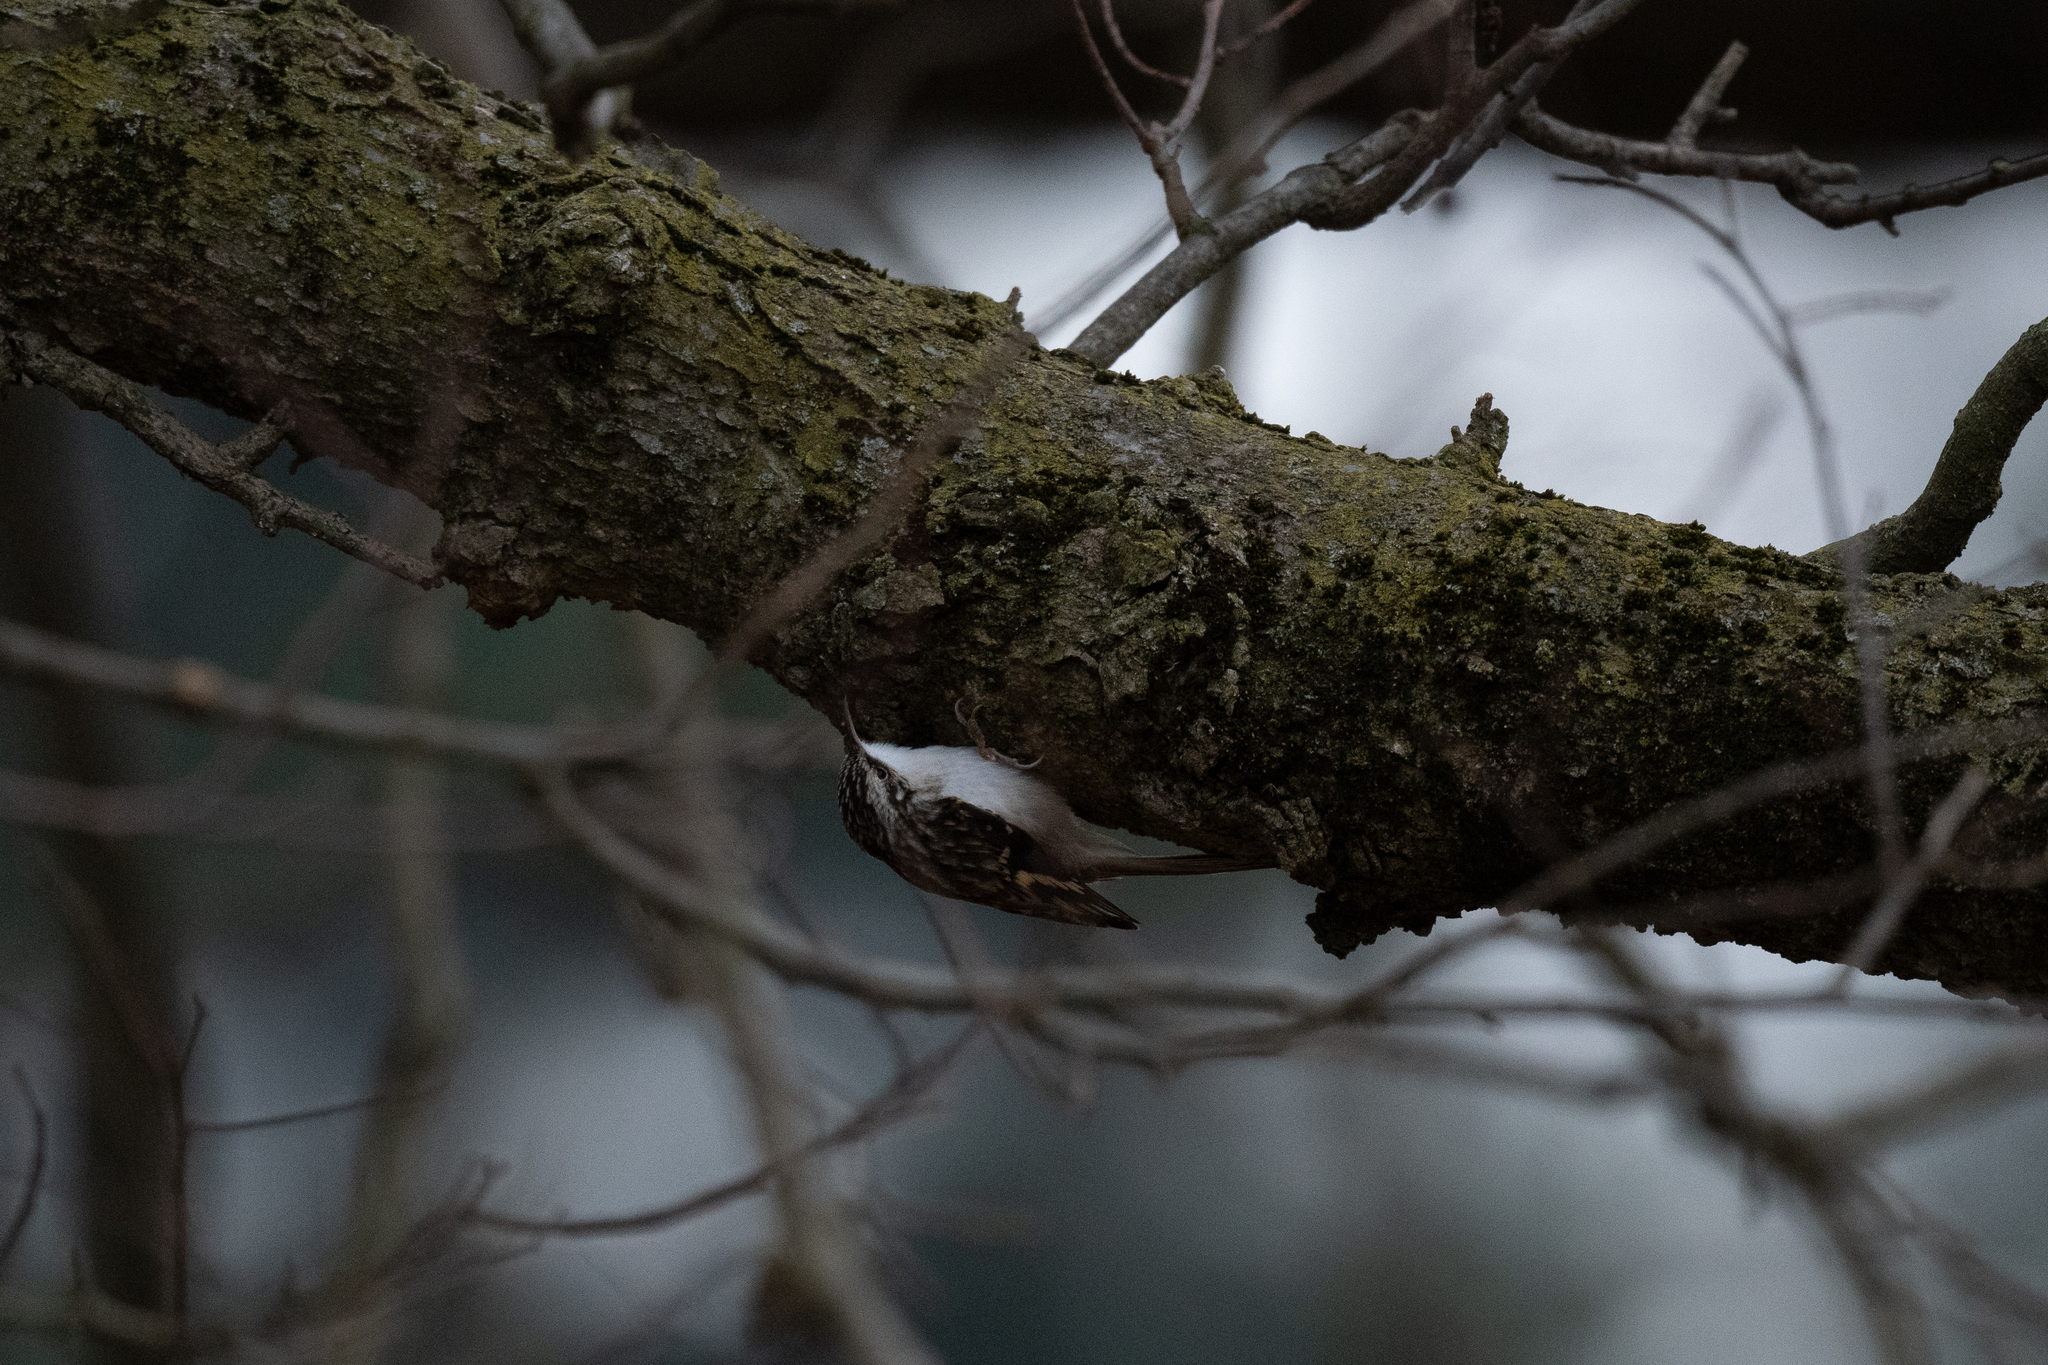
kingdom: Animalia
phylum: Chordata
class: Aves
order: Passeriformes
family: Certhiidae
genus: Certhia
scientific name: Certhia americana
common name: Brown creeper
